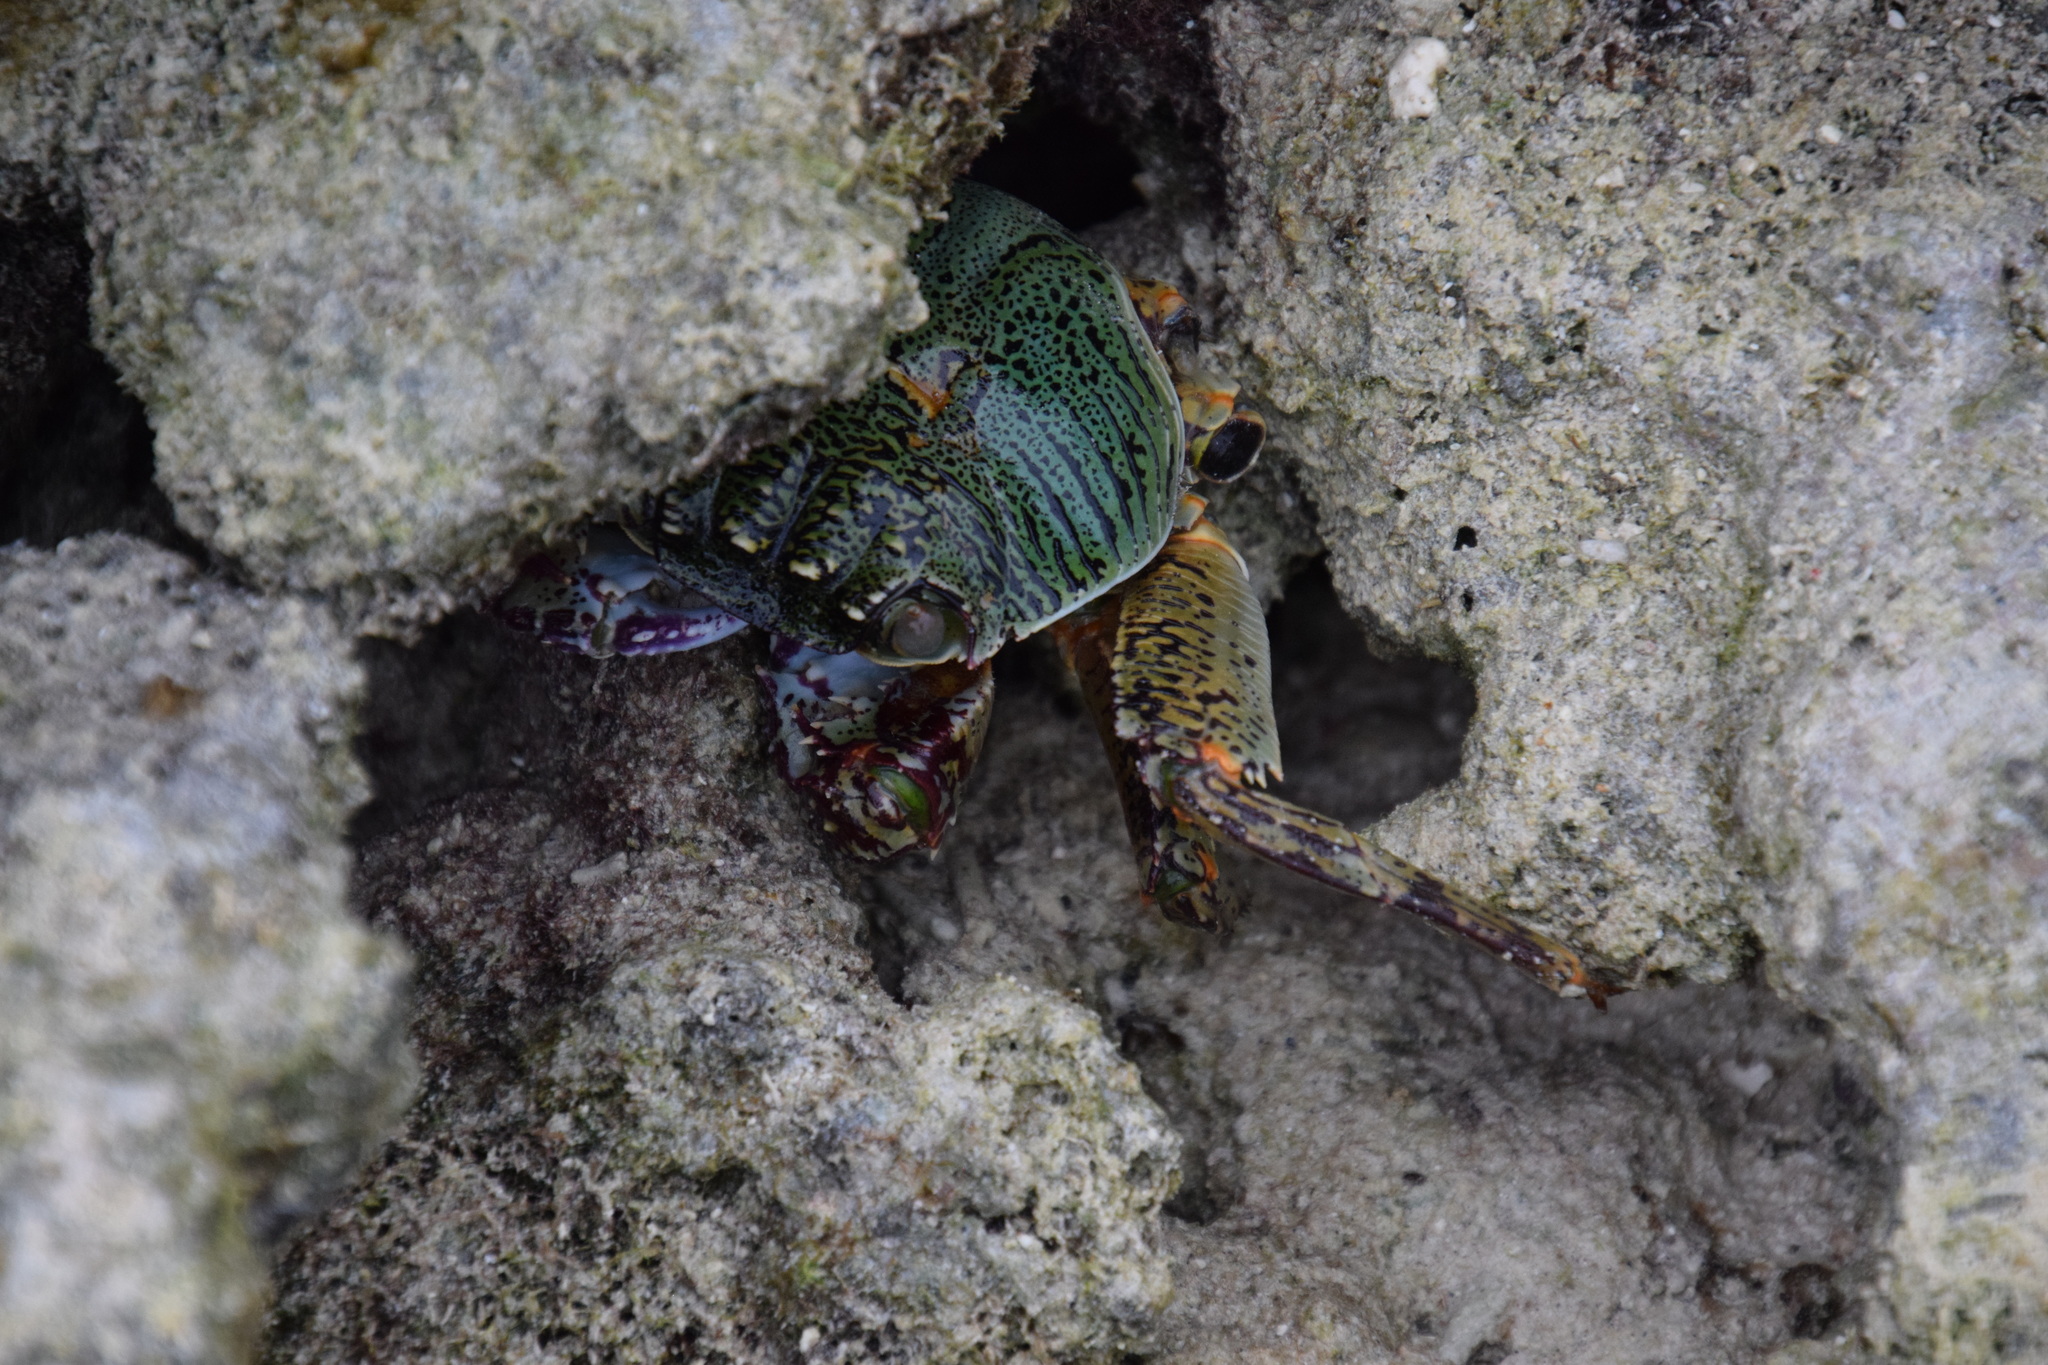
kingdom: Animalia
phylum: Arthropoda
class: Malacostraca
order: Decapoda
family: Grapsidae
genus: Grapsus
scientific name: Grapsus albolineatus
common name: Mottled lightfoot crab
